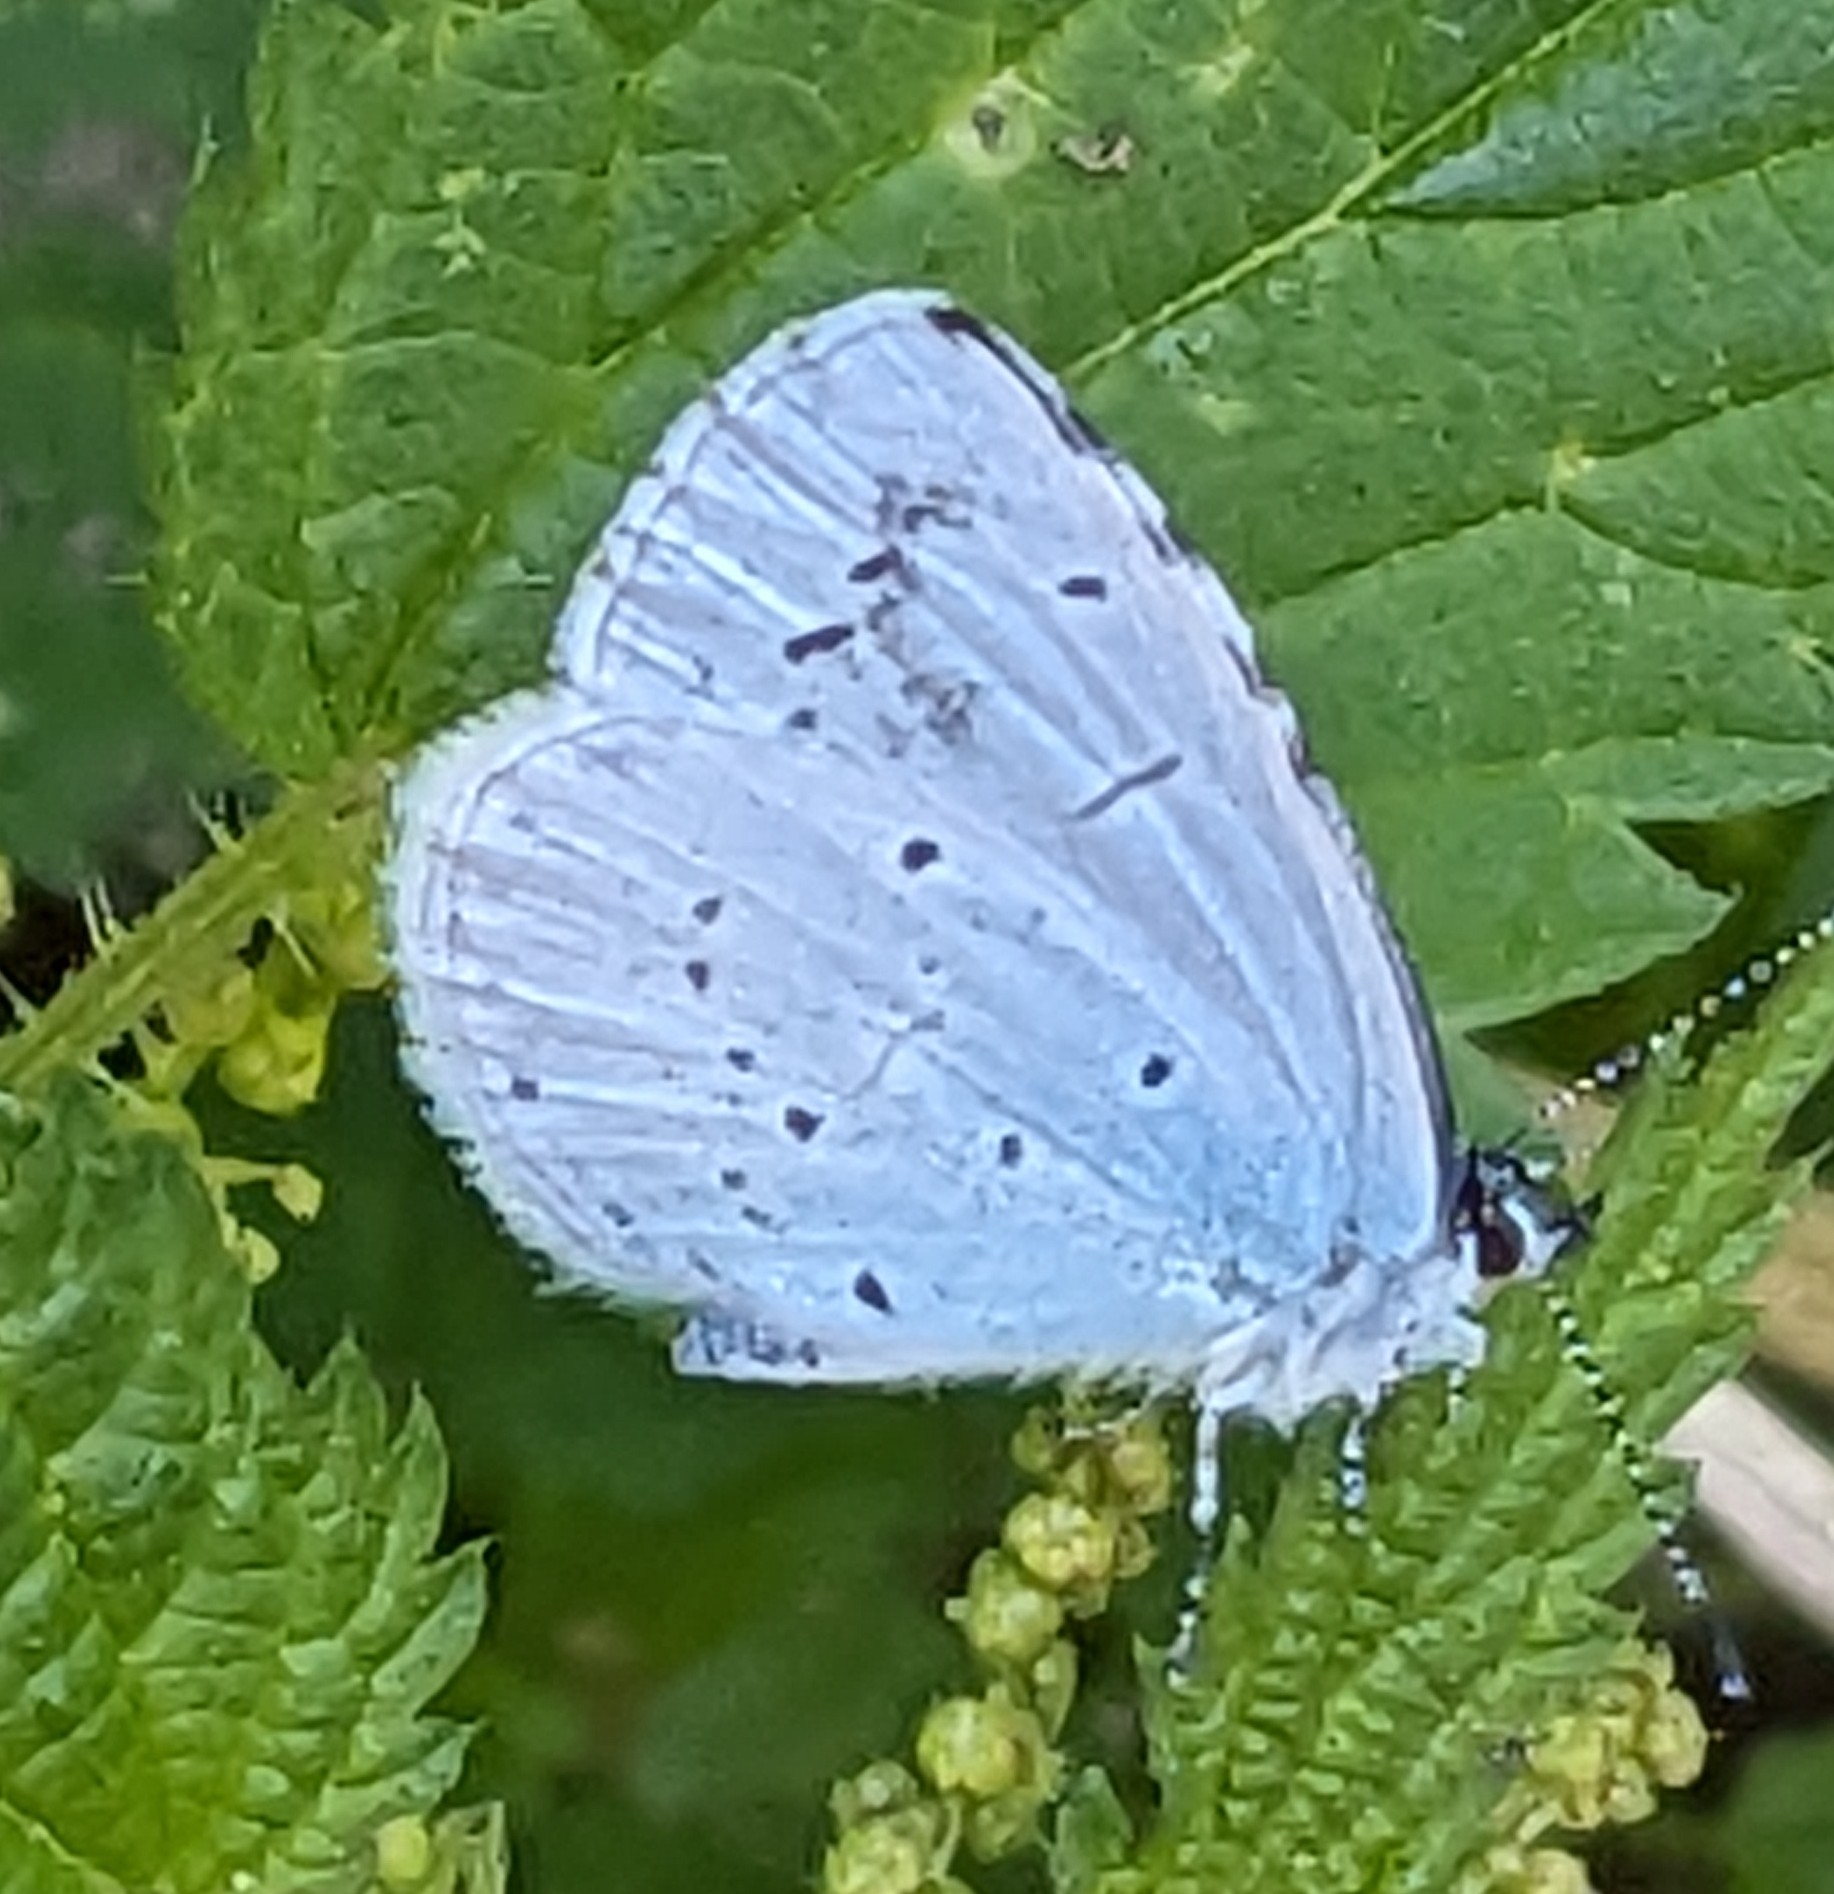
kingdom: Animalia
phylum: Arthropoda
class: Insecta
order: Lepidoptera
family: Lycaenidae
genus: Celastrina
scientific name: Celastrina argiolus
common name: Holly blue
